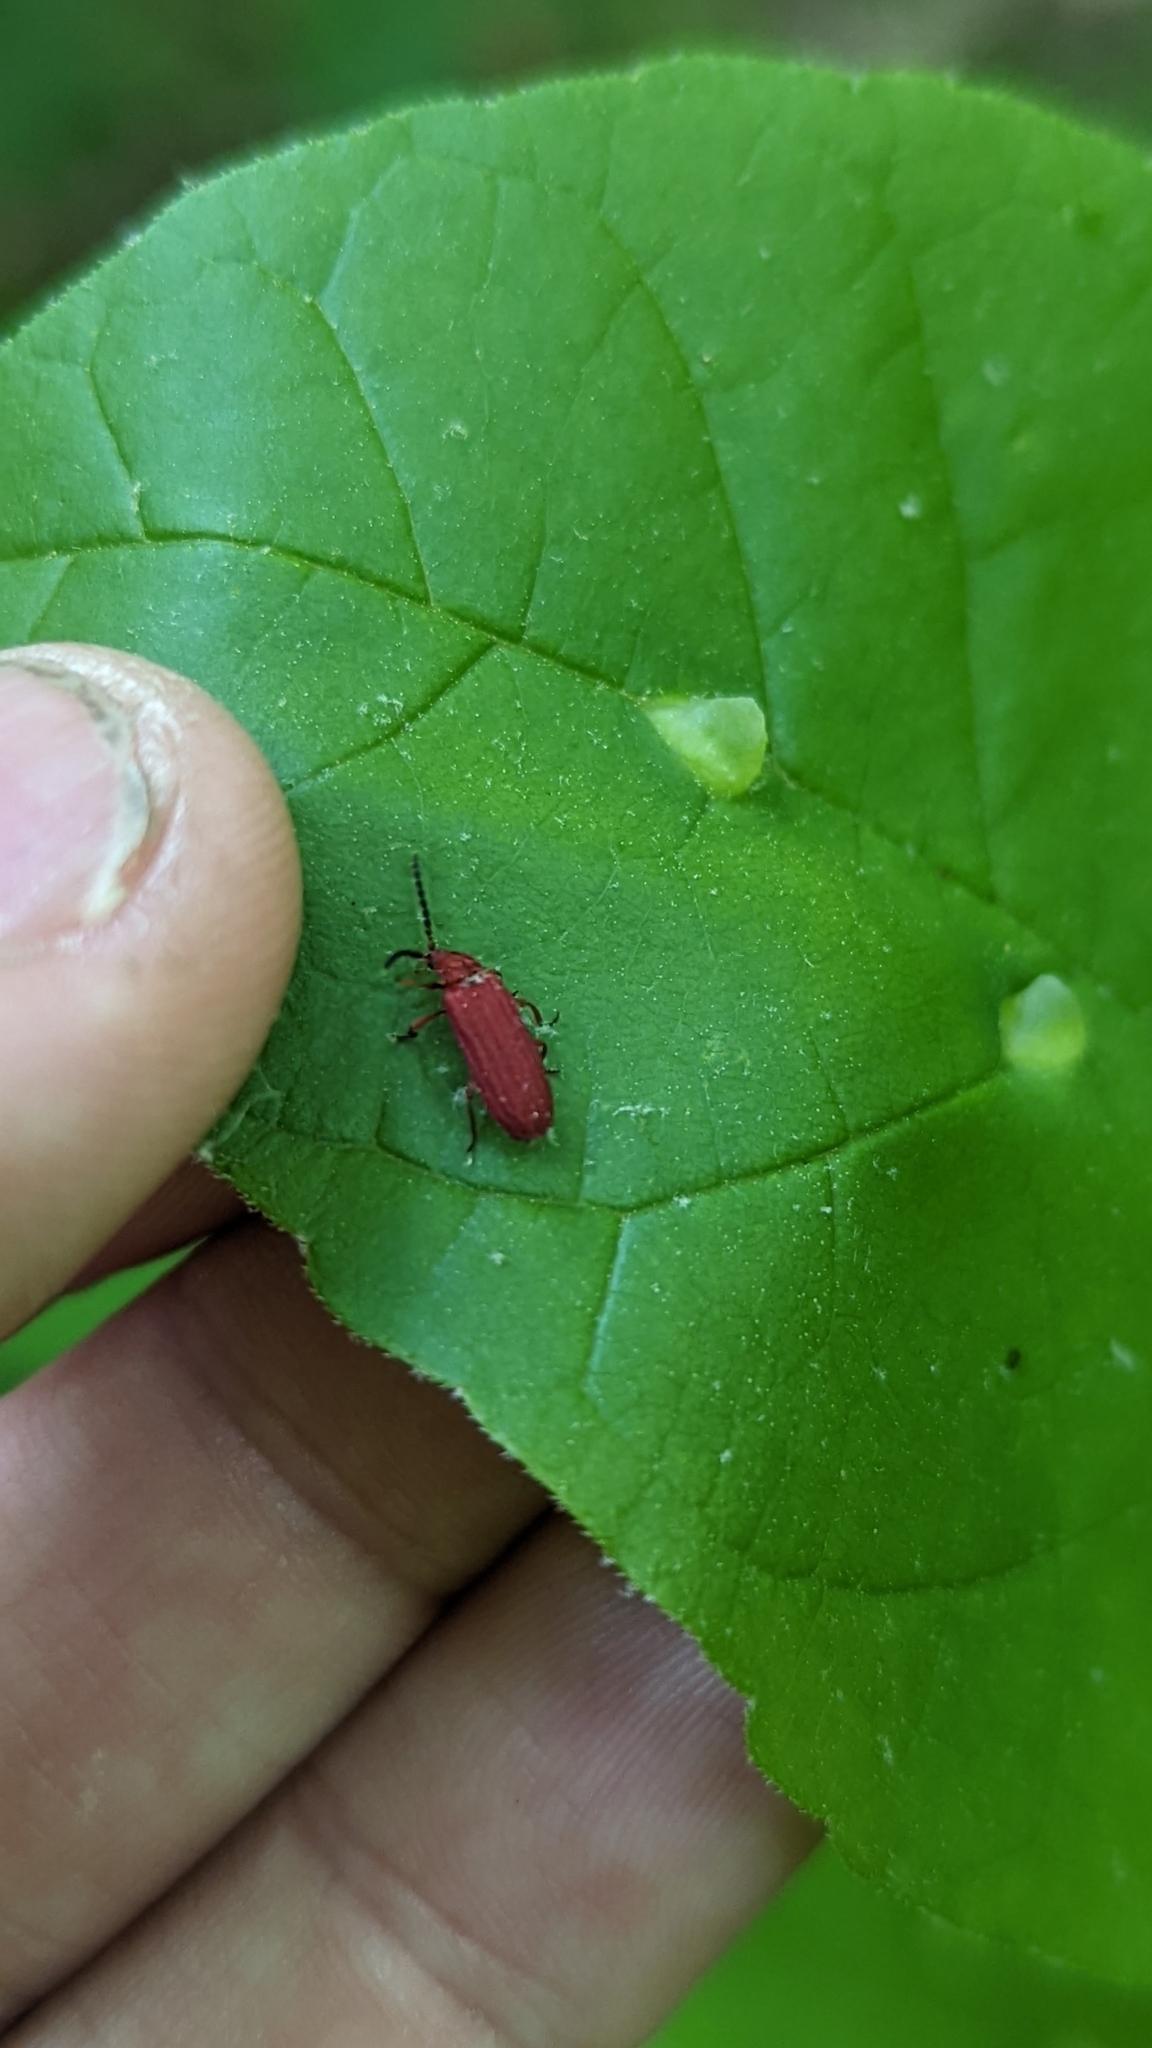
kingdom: Animalia
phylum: Arthropoda
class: Insecta
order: Coleoptera
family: Lycidae
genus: Punicealis
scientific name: Punicealis
